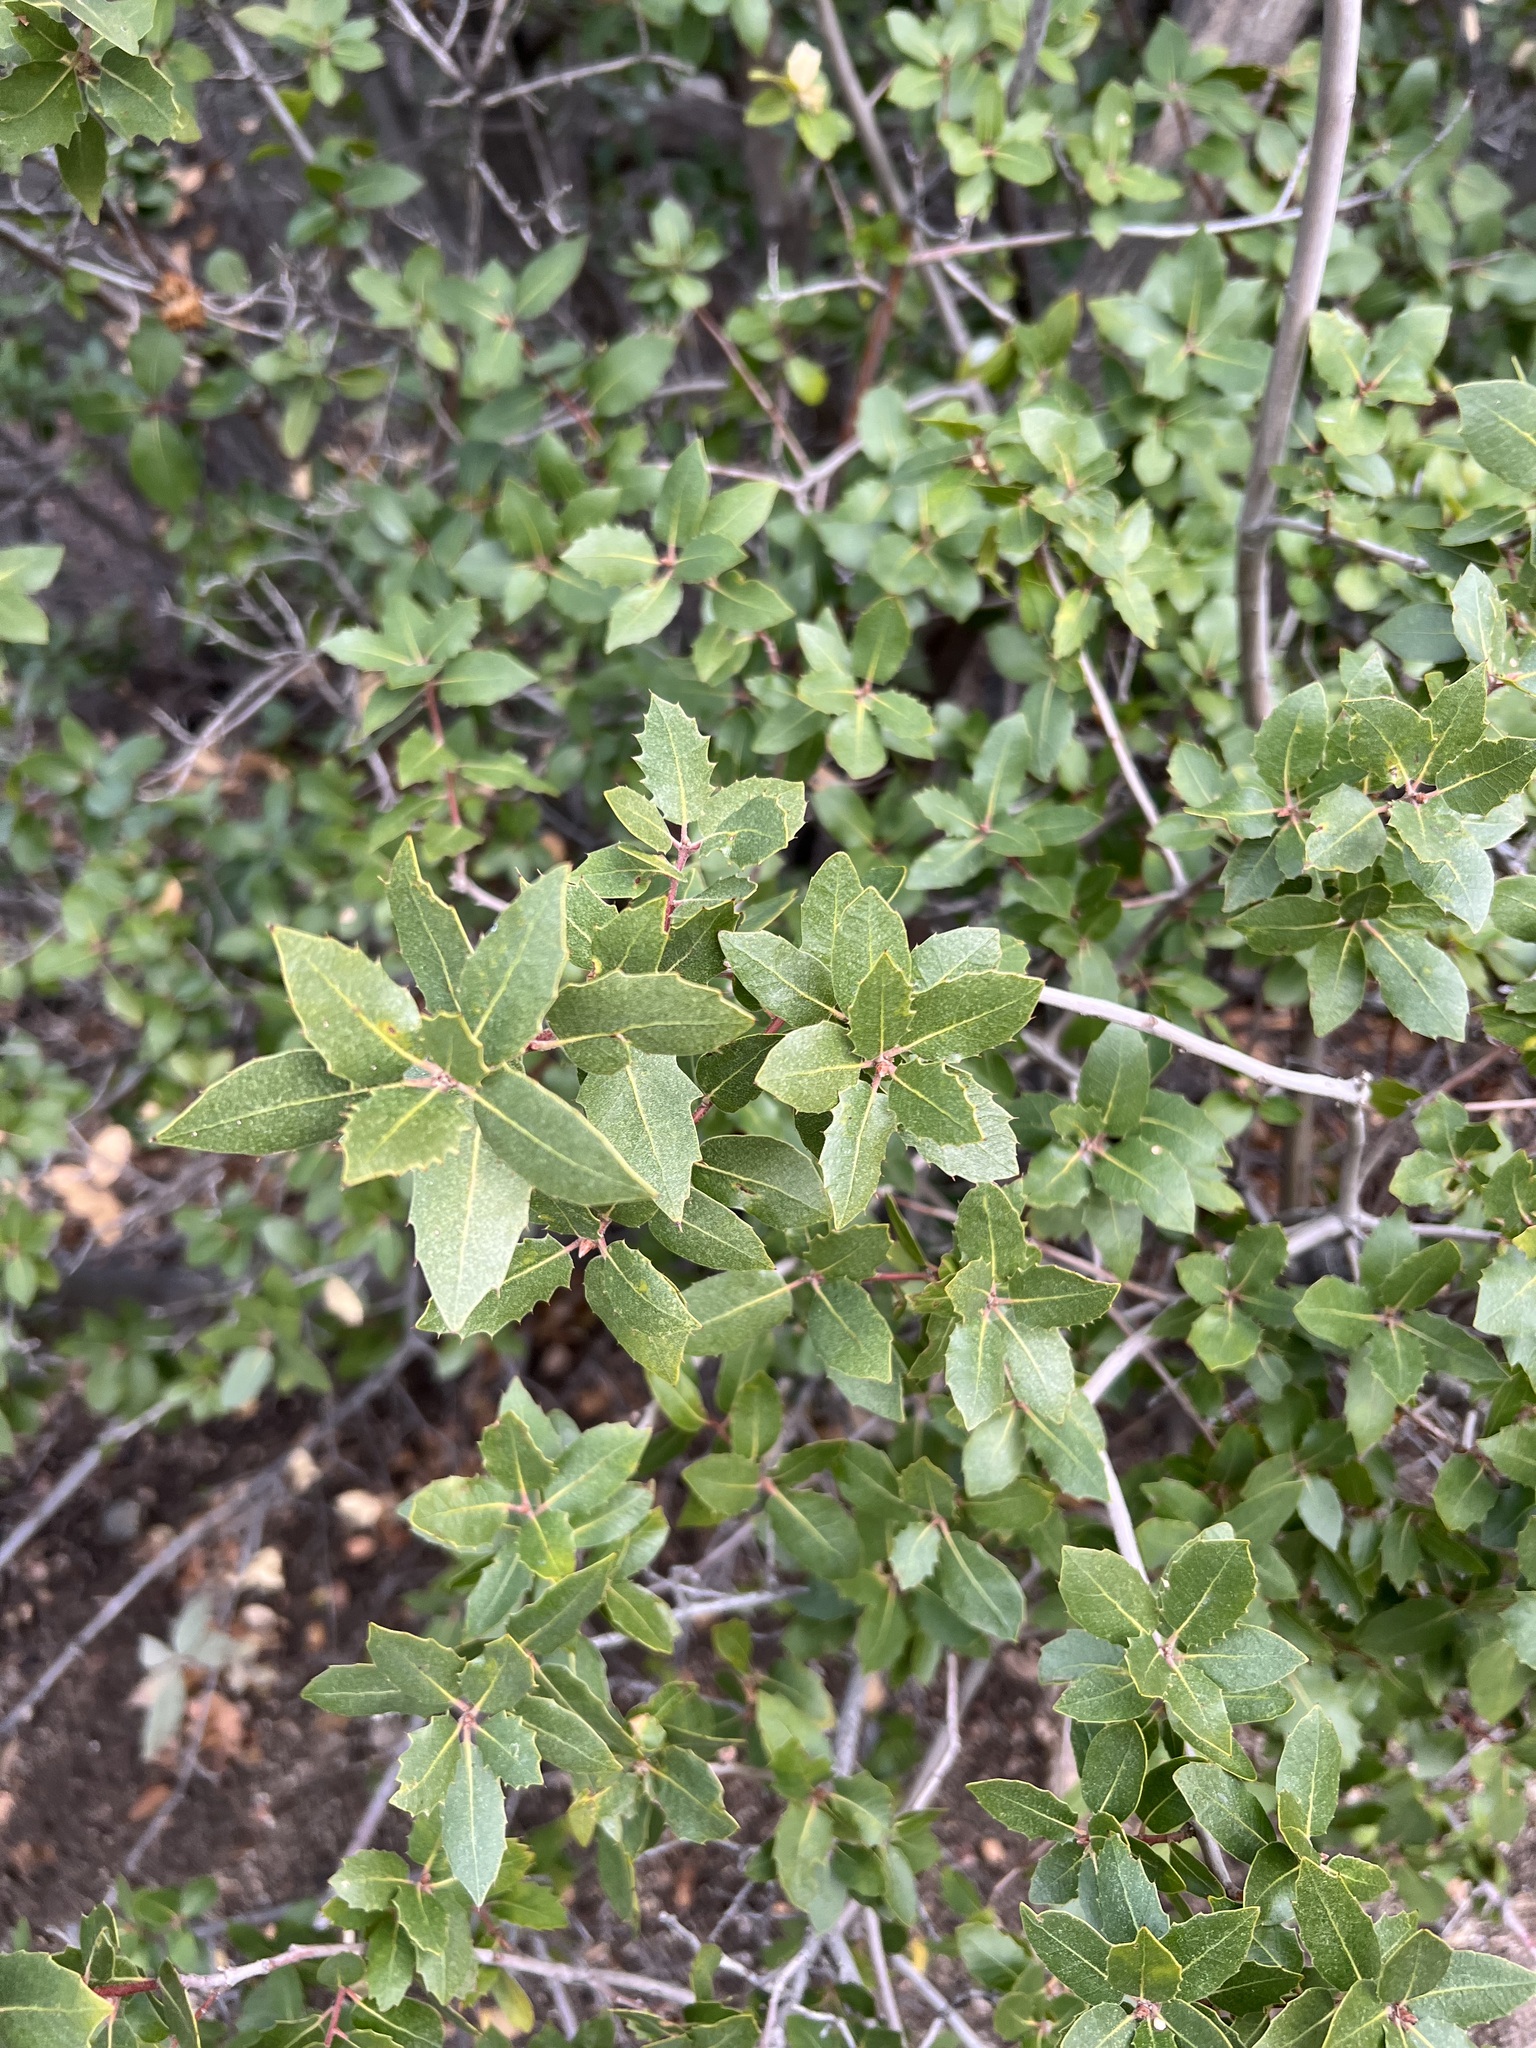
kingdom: Plantae
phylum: Tracheophyta
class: Magnoliopsida
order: Fagales
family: Fagaceae
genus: Quercus
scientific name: Quercus wislizeni
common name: Interior live oak
